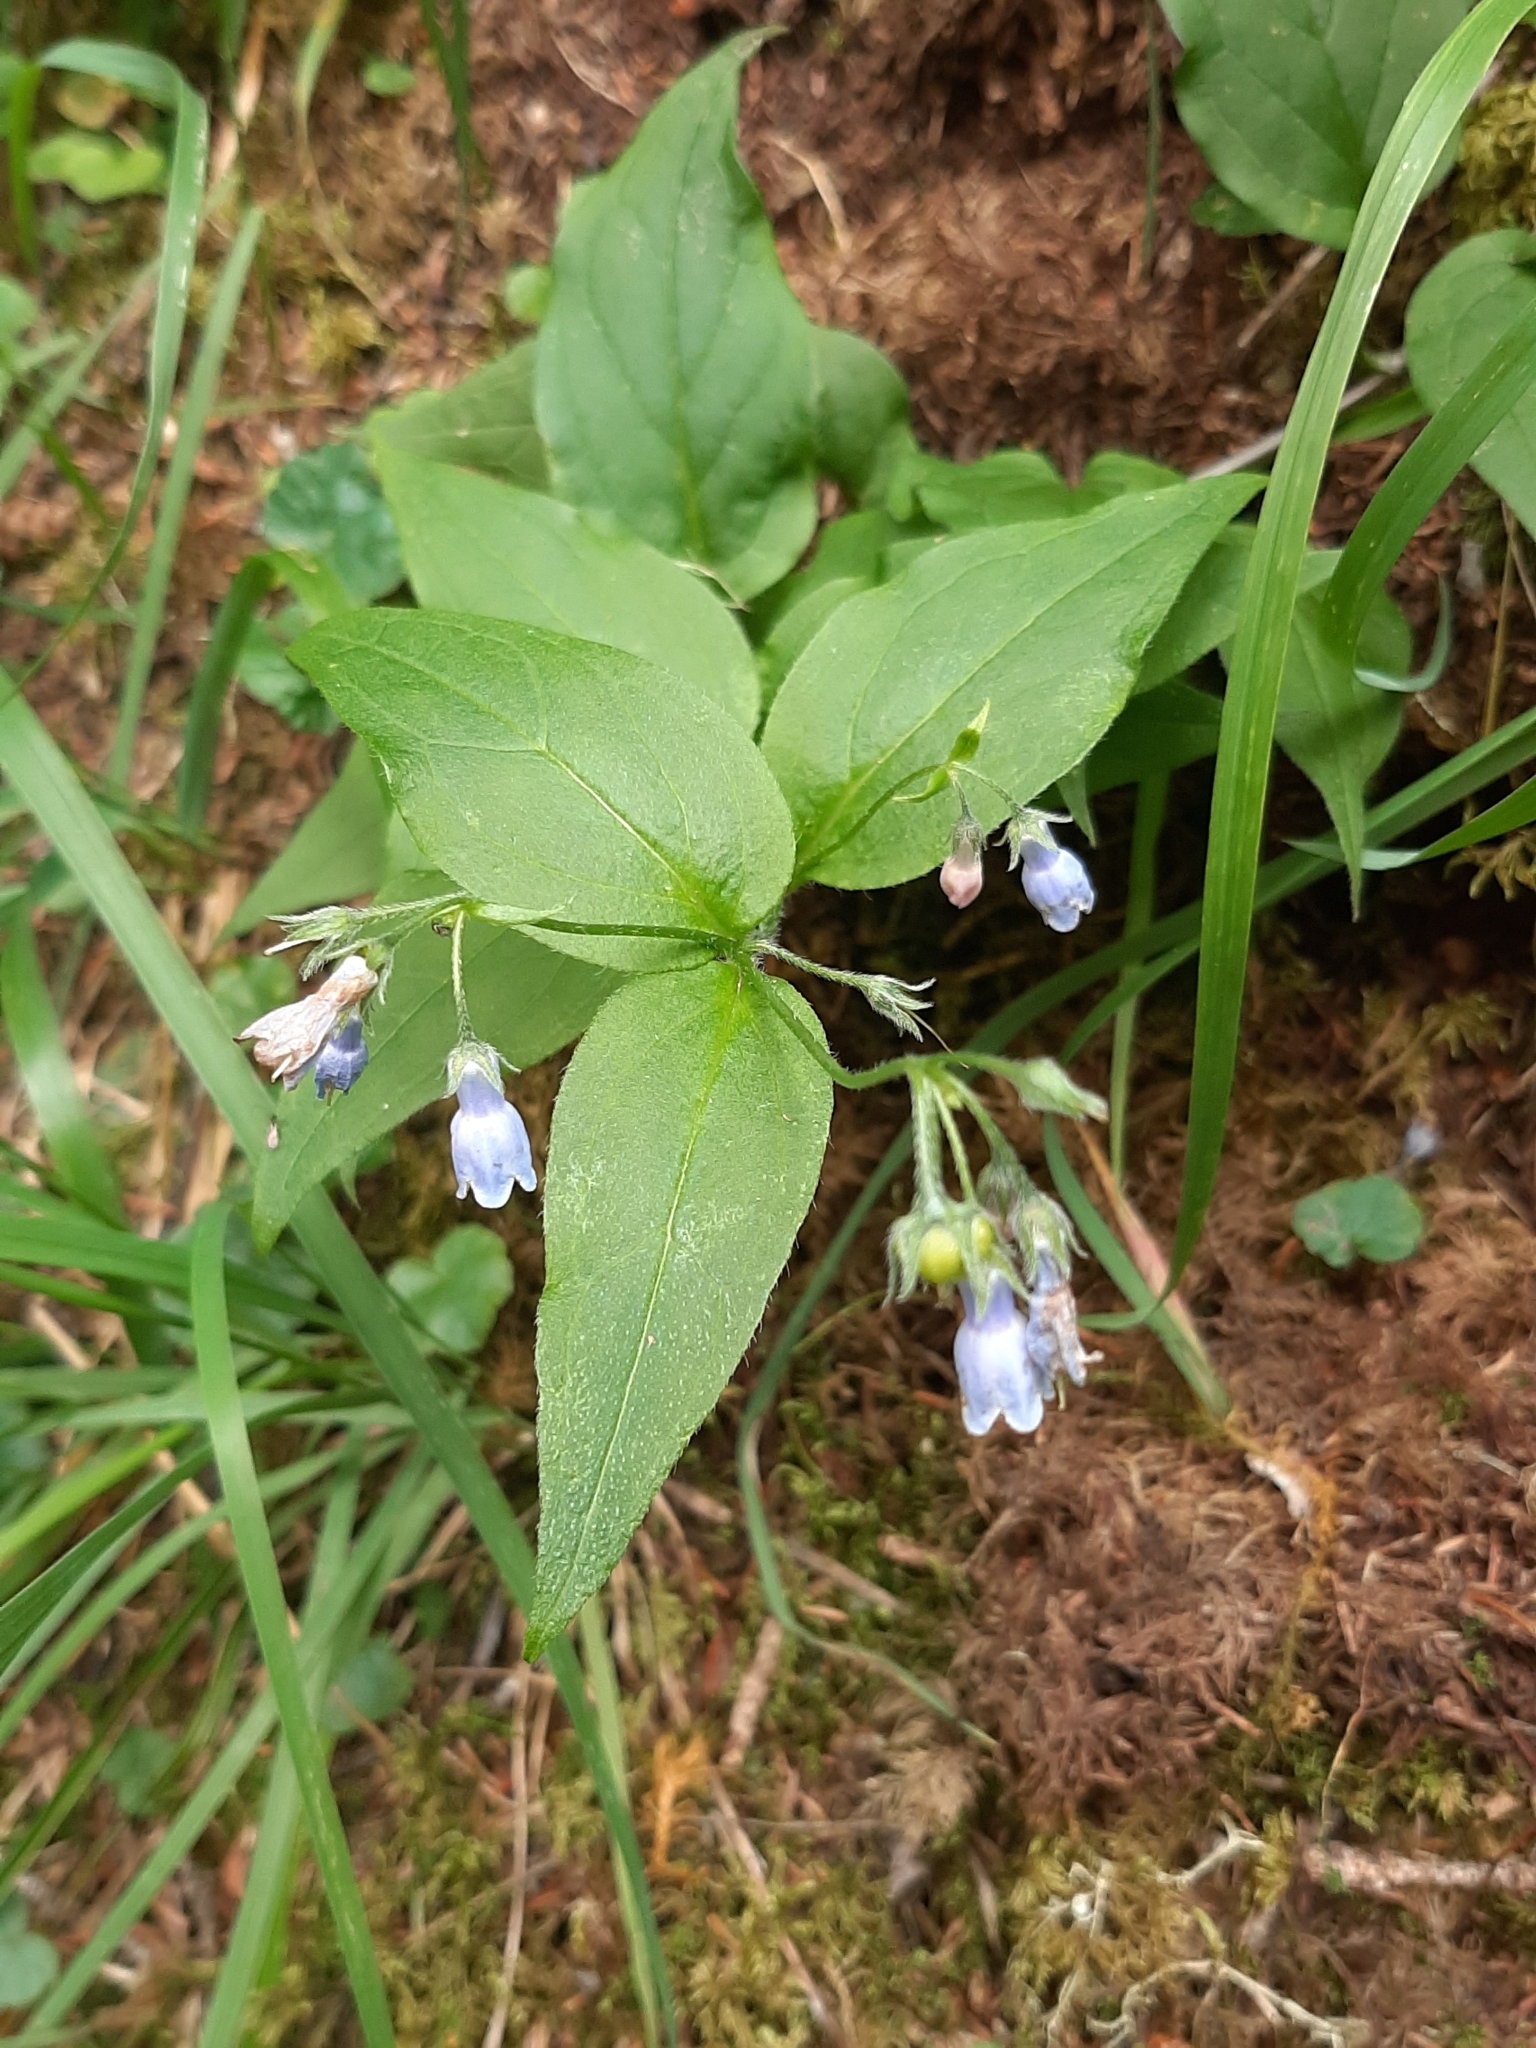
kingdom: Plantae
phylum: Tracheophyta
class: Magnoliopsida
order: Boraginales
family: Boraginaceae
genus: Mertensia
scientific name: Mertensia paniculata
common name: Panicled bluebells
